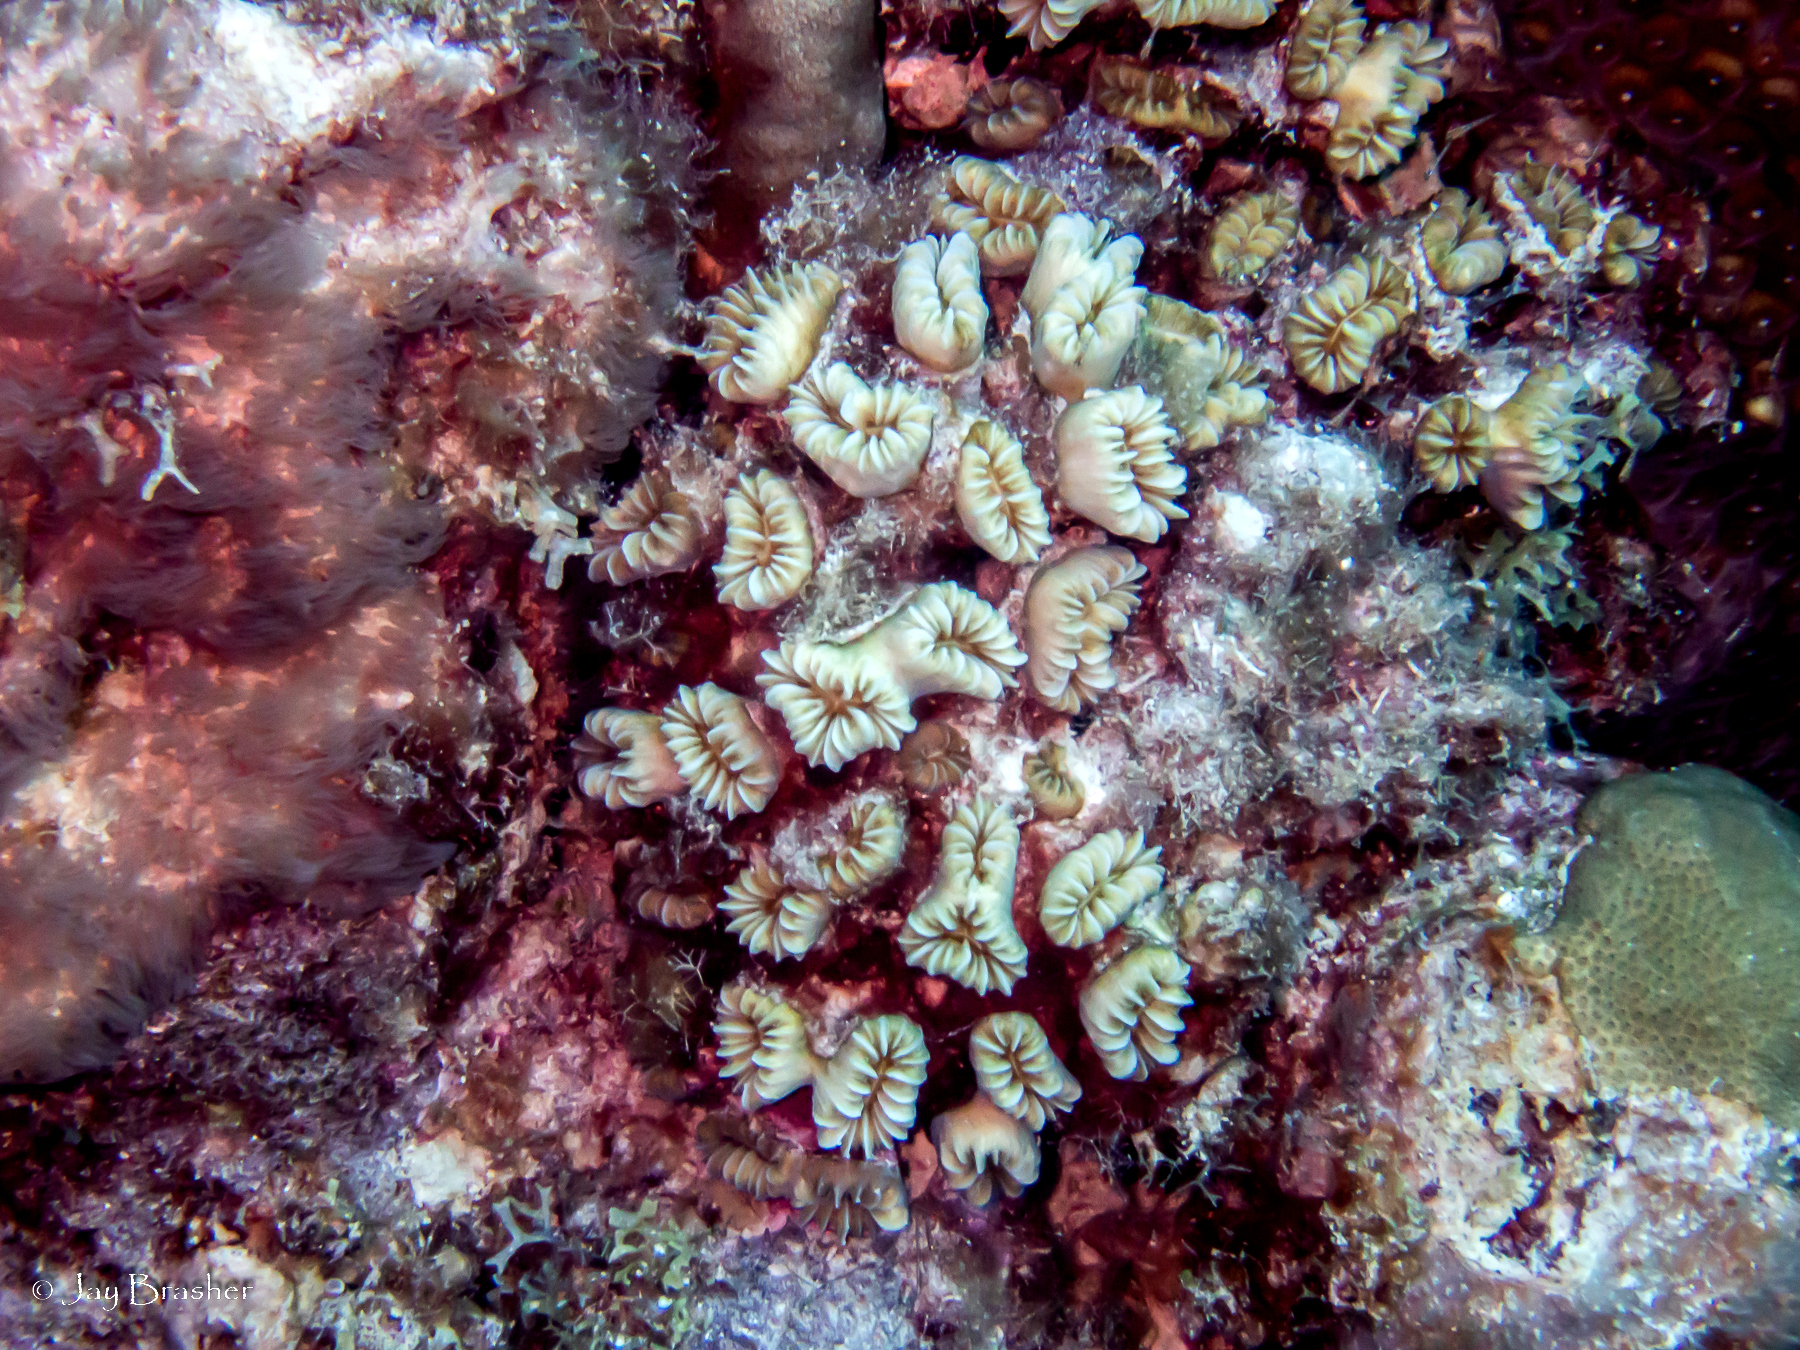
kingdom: Animalia
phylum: Cnidaria
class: Anthozoa
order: Scleractinia
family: Meandrinidae
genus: Eusmilia
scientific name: Eusmilia fastigiata
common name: Smooth flower coral
